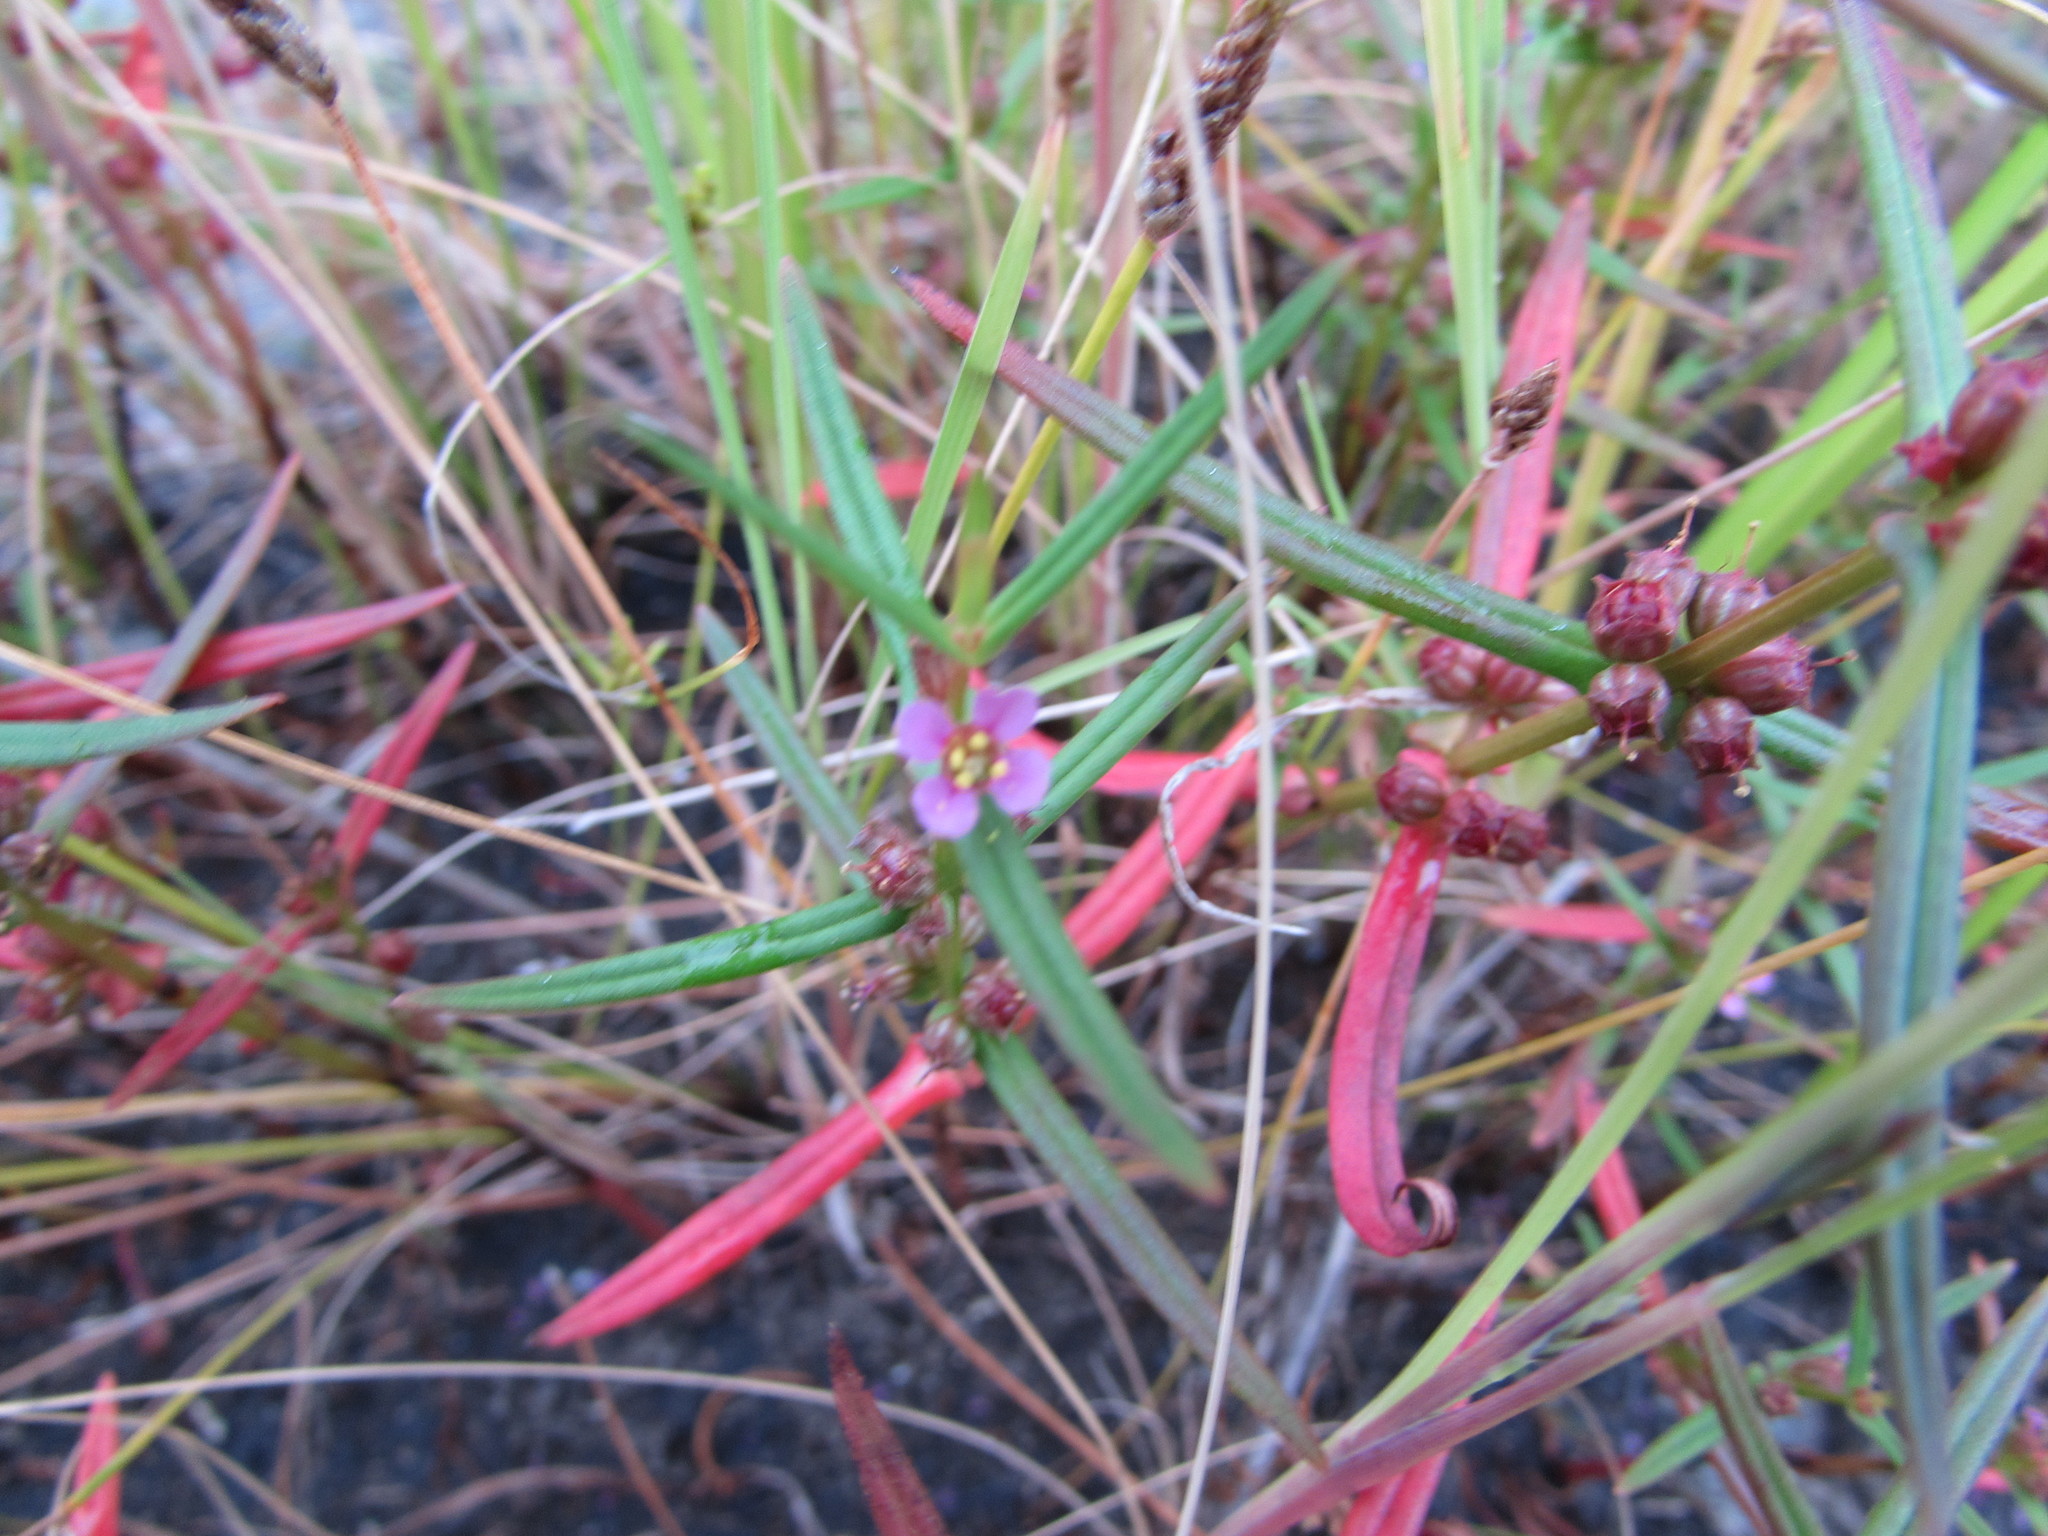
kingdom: Plantae
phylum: Tracheophyta
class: Magnoliopsida
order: Myrtales
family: Lythraceae
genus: Ammannia
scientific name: Ammannia coccinea
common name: Valley redstem
